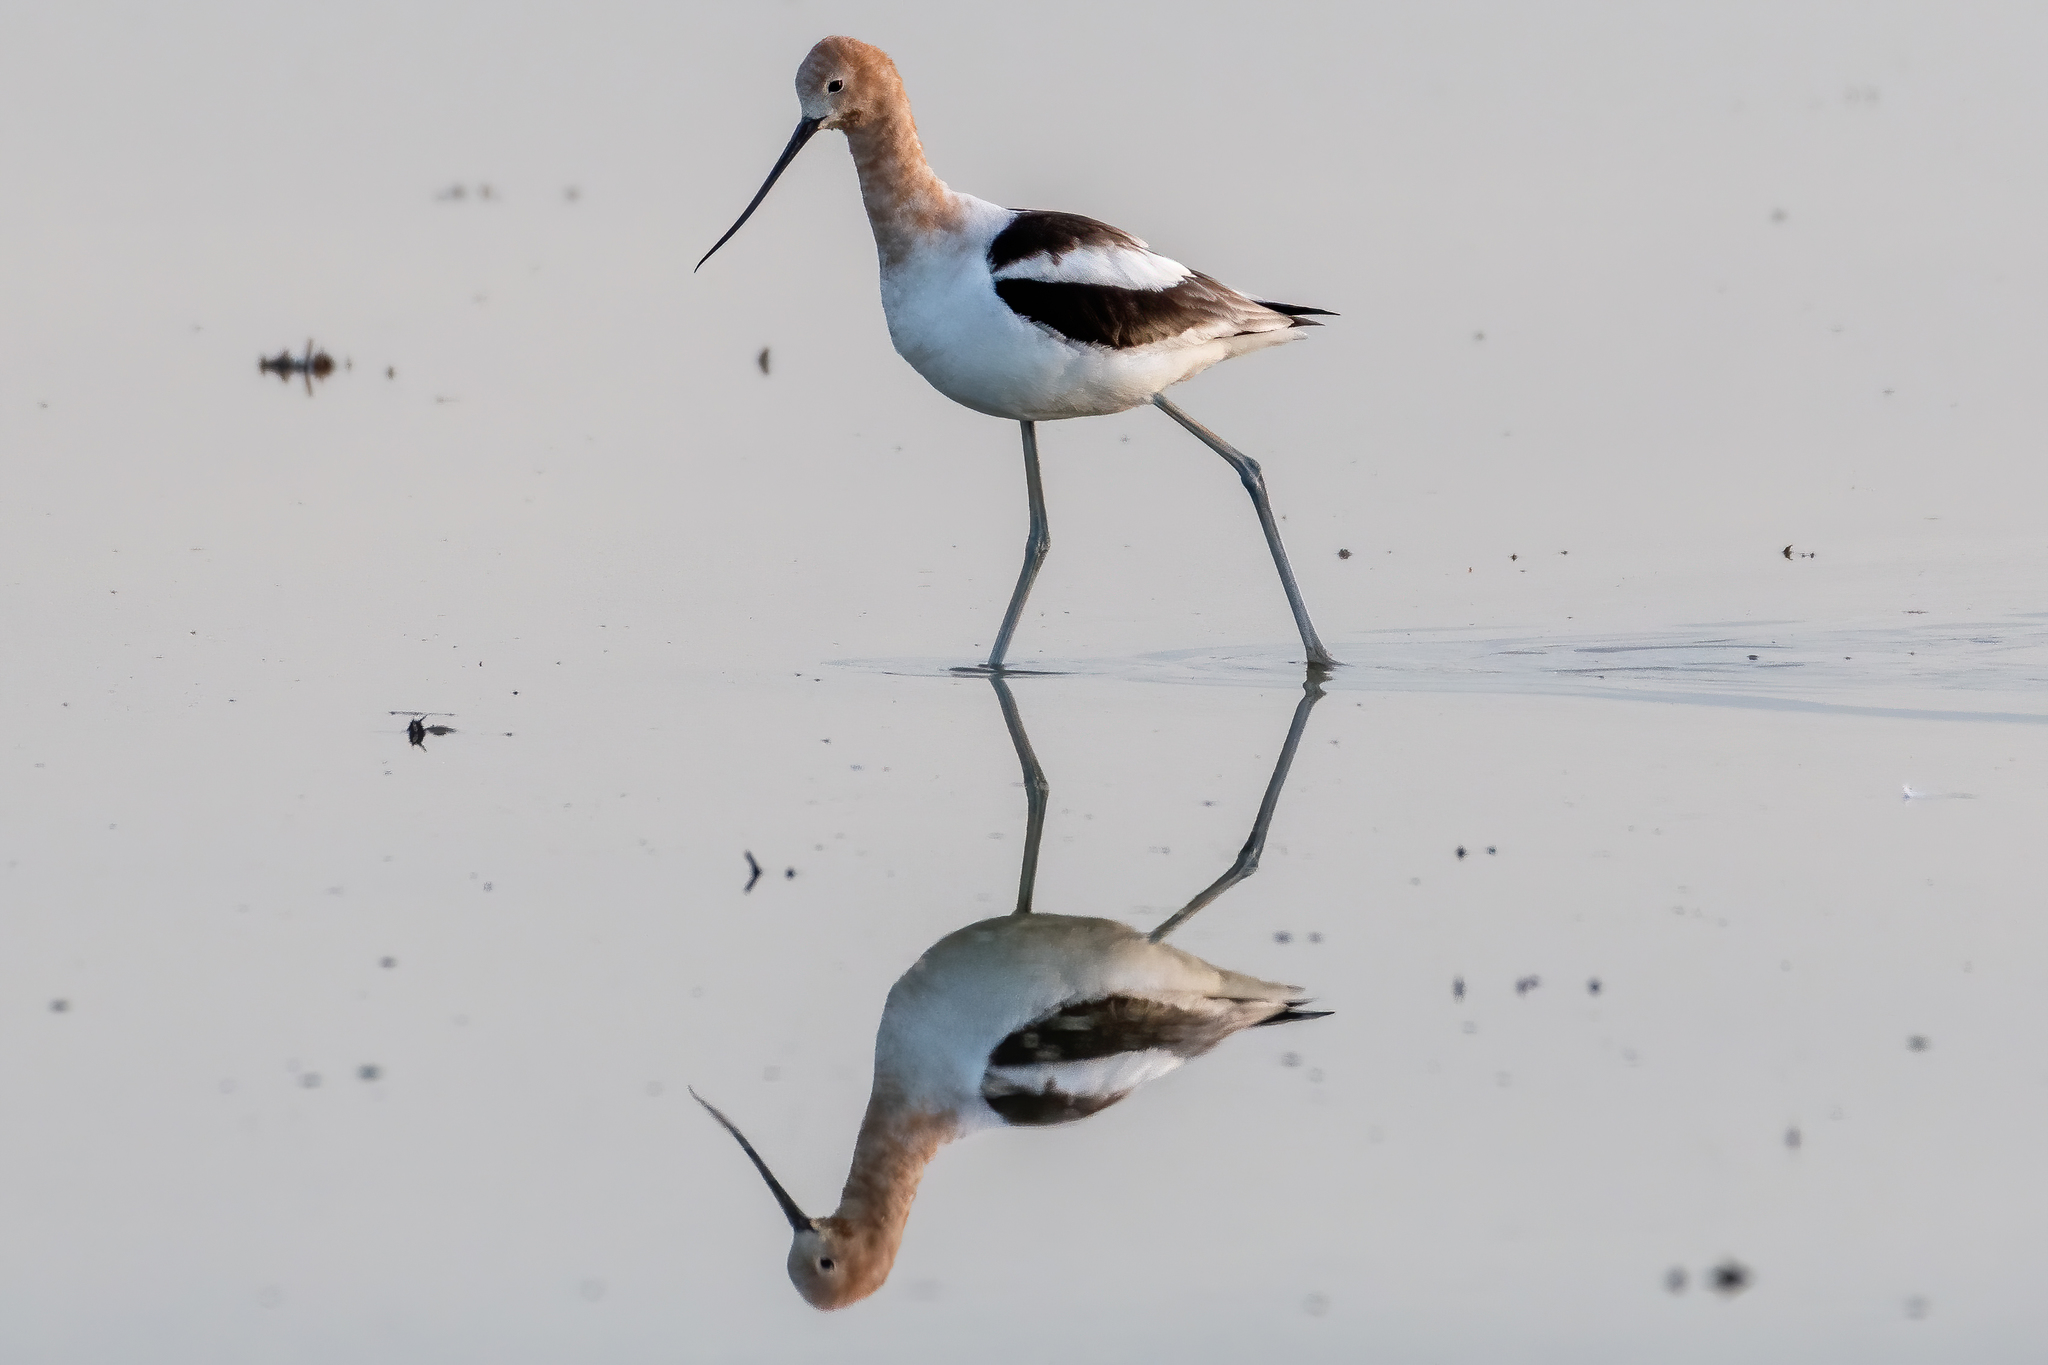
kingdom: Animalia
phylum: Chordata
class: Aves
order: Charadriiformes
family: Recurvirostridae
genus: Recurvirostra
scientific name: Recurvirostra americana
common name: American avocet
